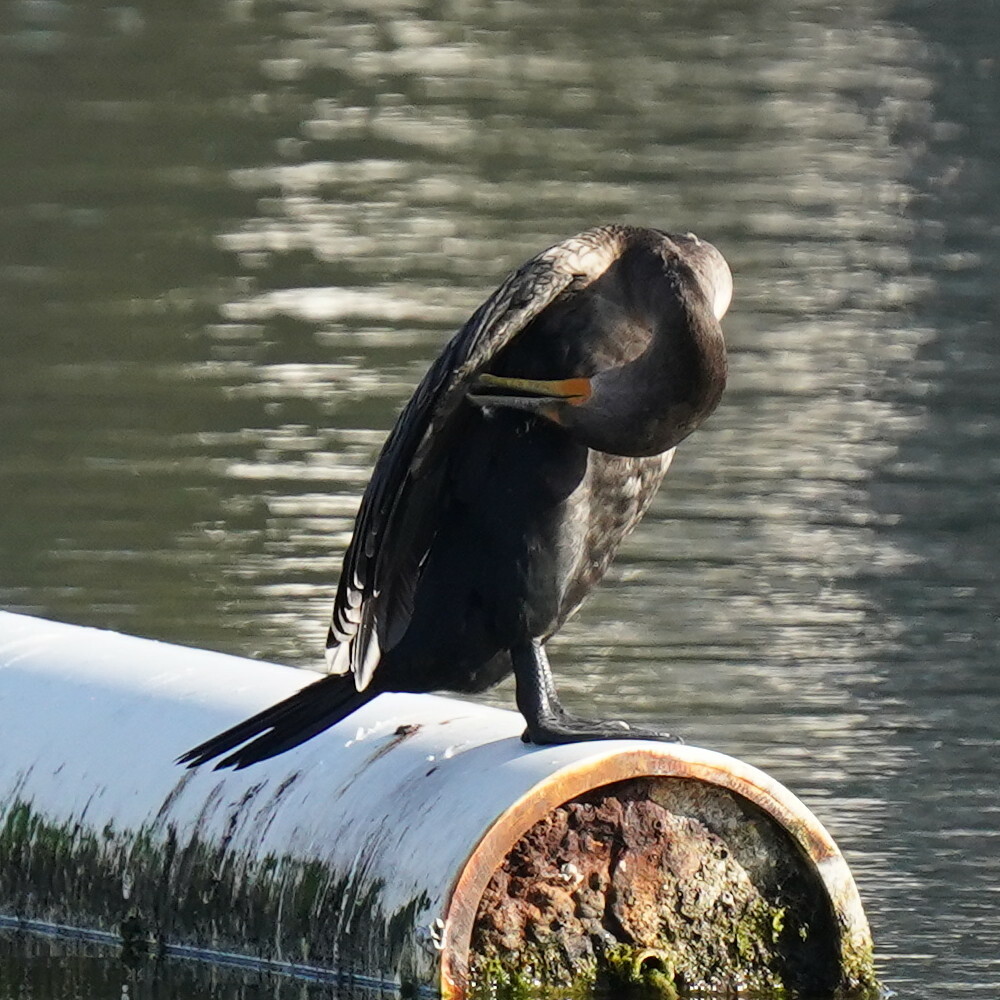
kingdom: Animalia
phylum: Chordata
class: Aves
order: Suliformes
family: Phalacrocoracidae
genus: Phalacrocorax
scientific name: Phalacrocorax auritus
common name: Double-crested cormorant
